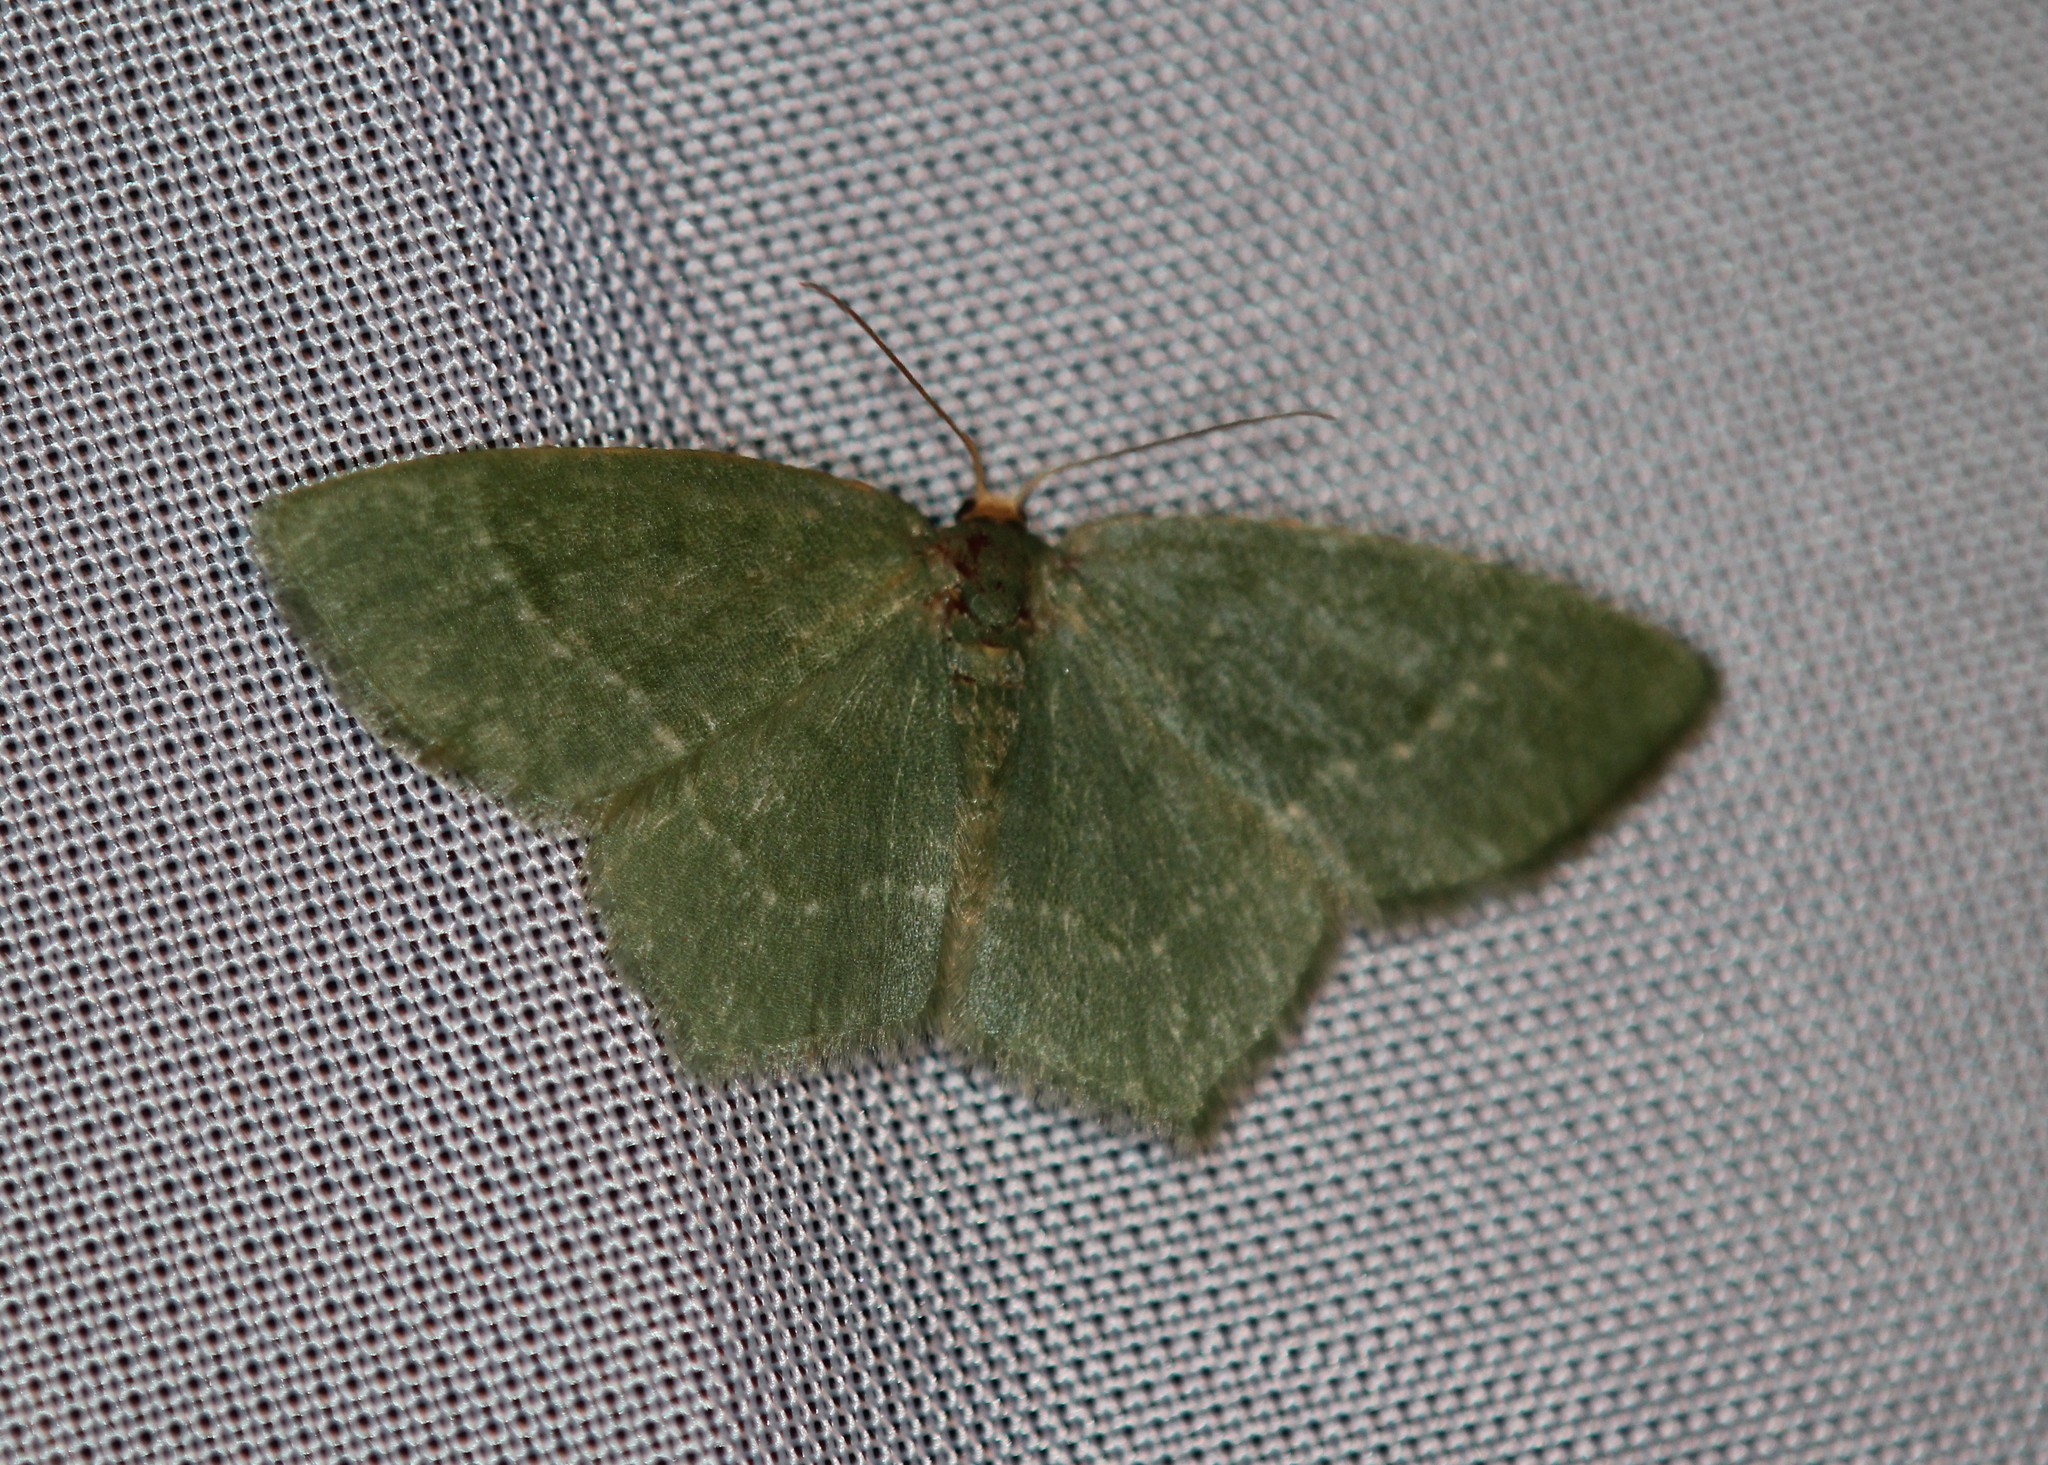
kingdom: Animalia
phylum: Arthropoda
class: Insecta
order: Lepidoptera
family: Geometridae
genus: Thalera
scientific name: Thalera pistasciaria
